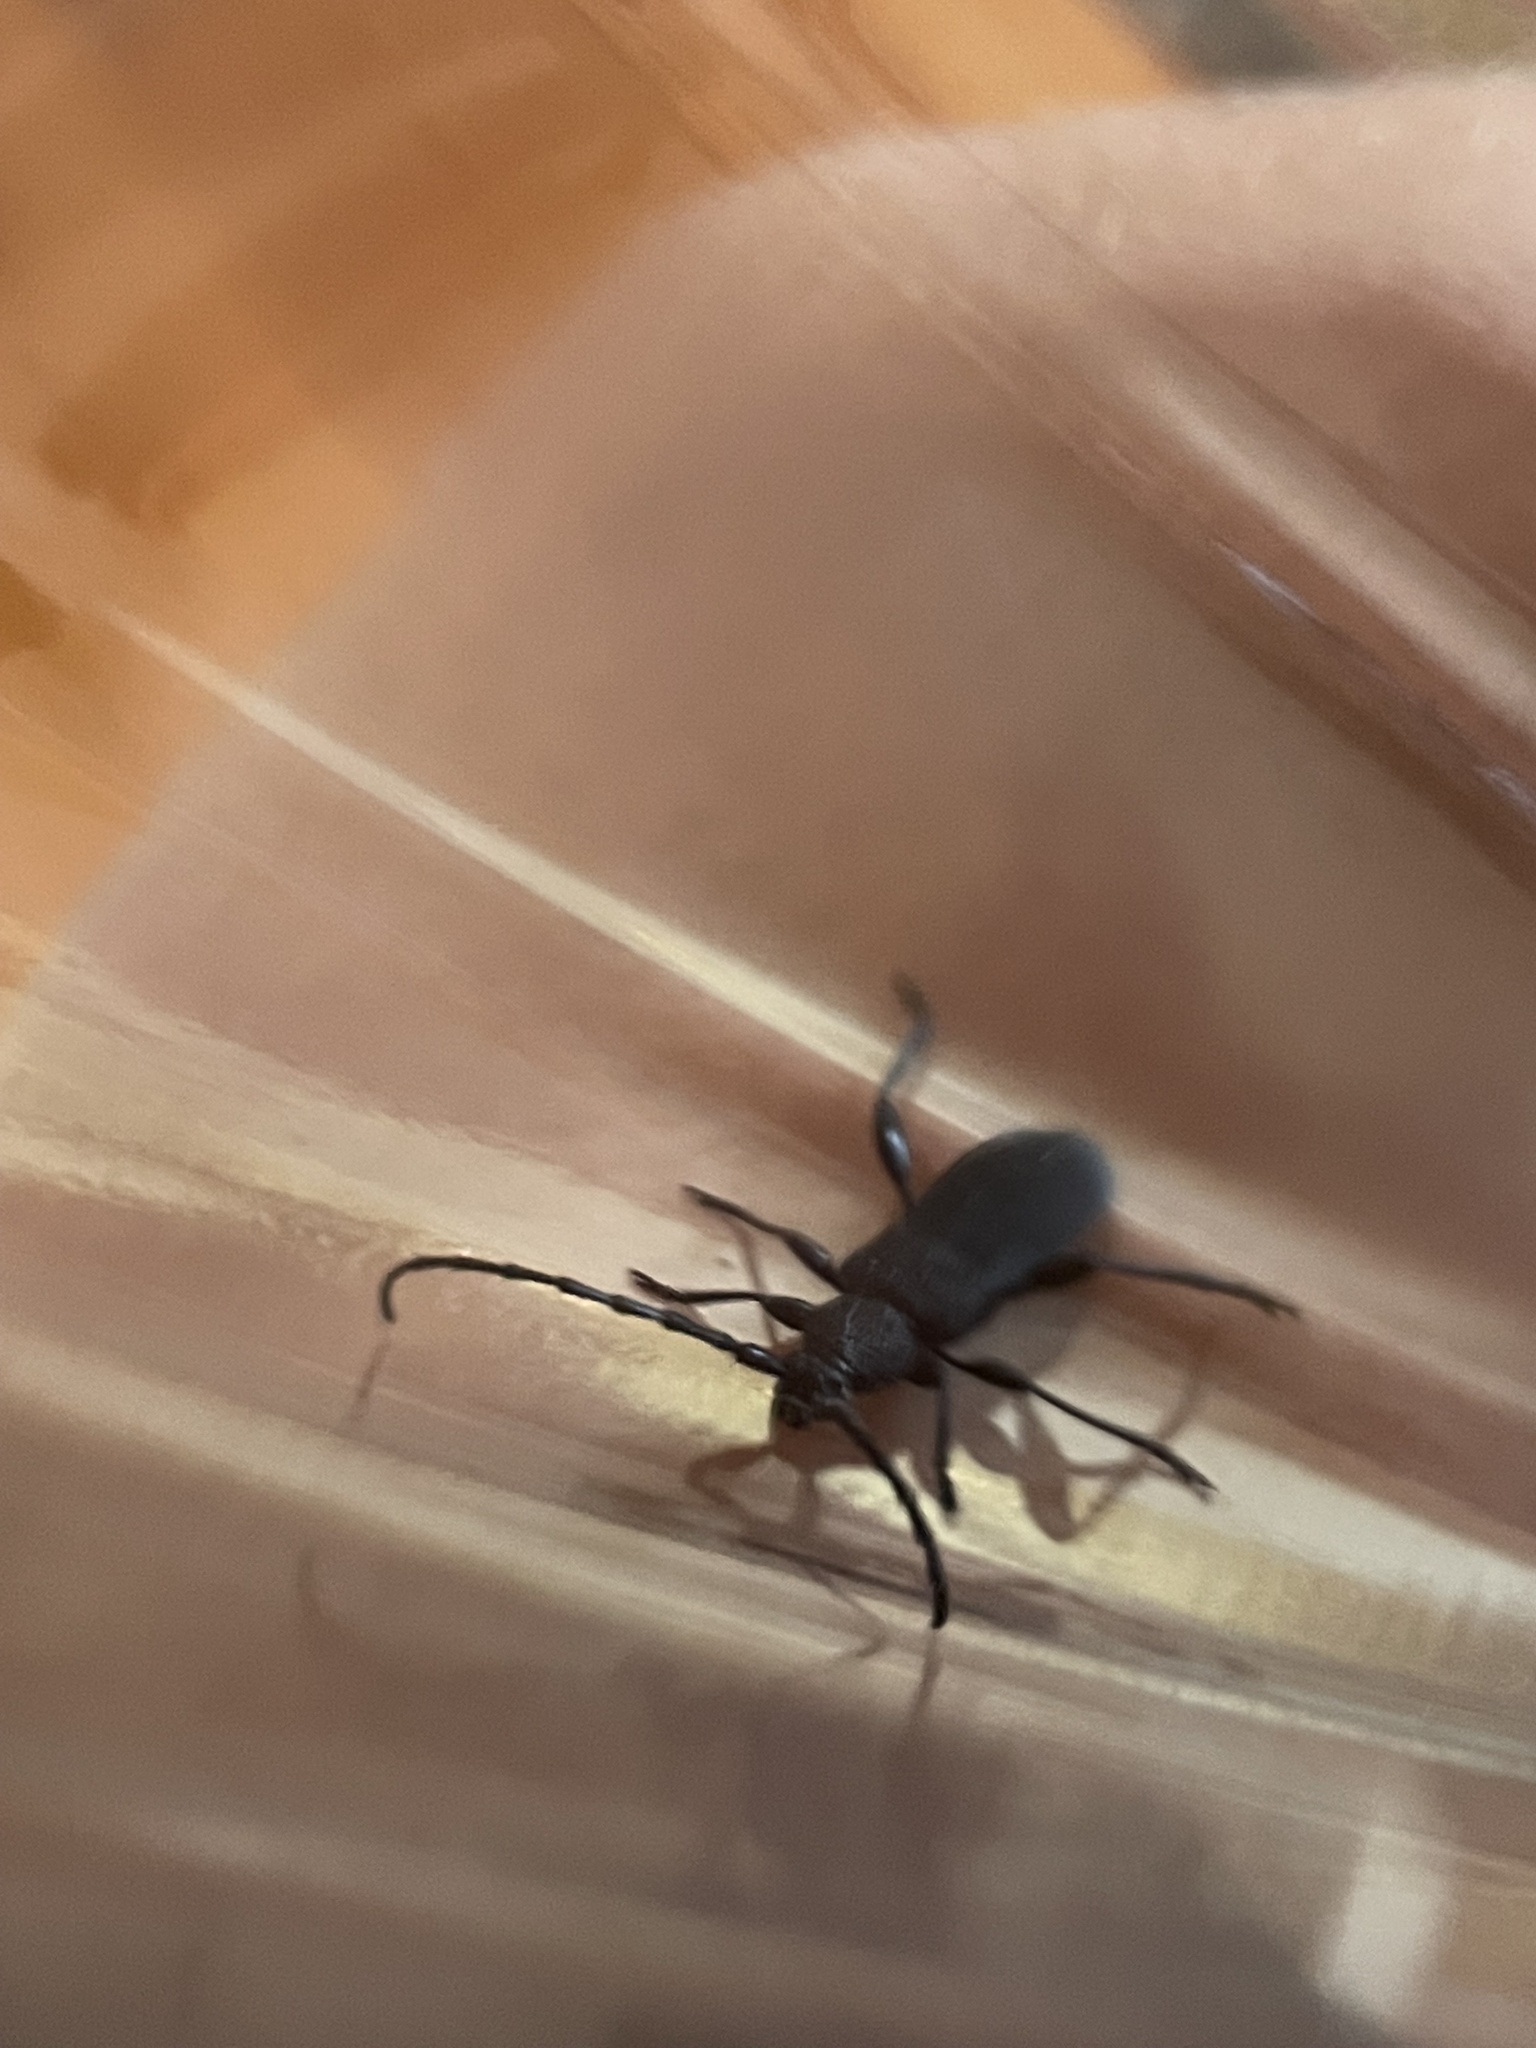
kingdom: Animalia
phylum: Arthropoda
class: Insecta
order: Coleoptera
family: Cerambycidae
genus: Ropalopus
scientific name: Ropalopus clavipes
